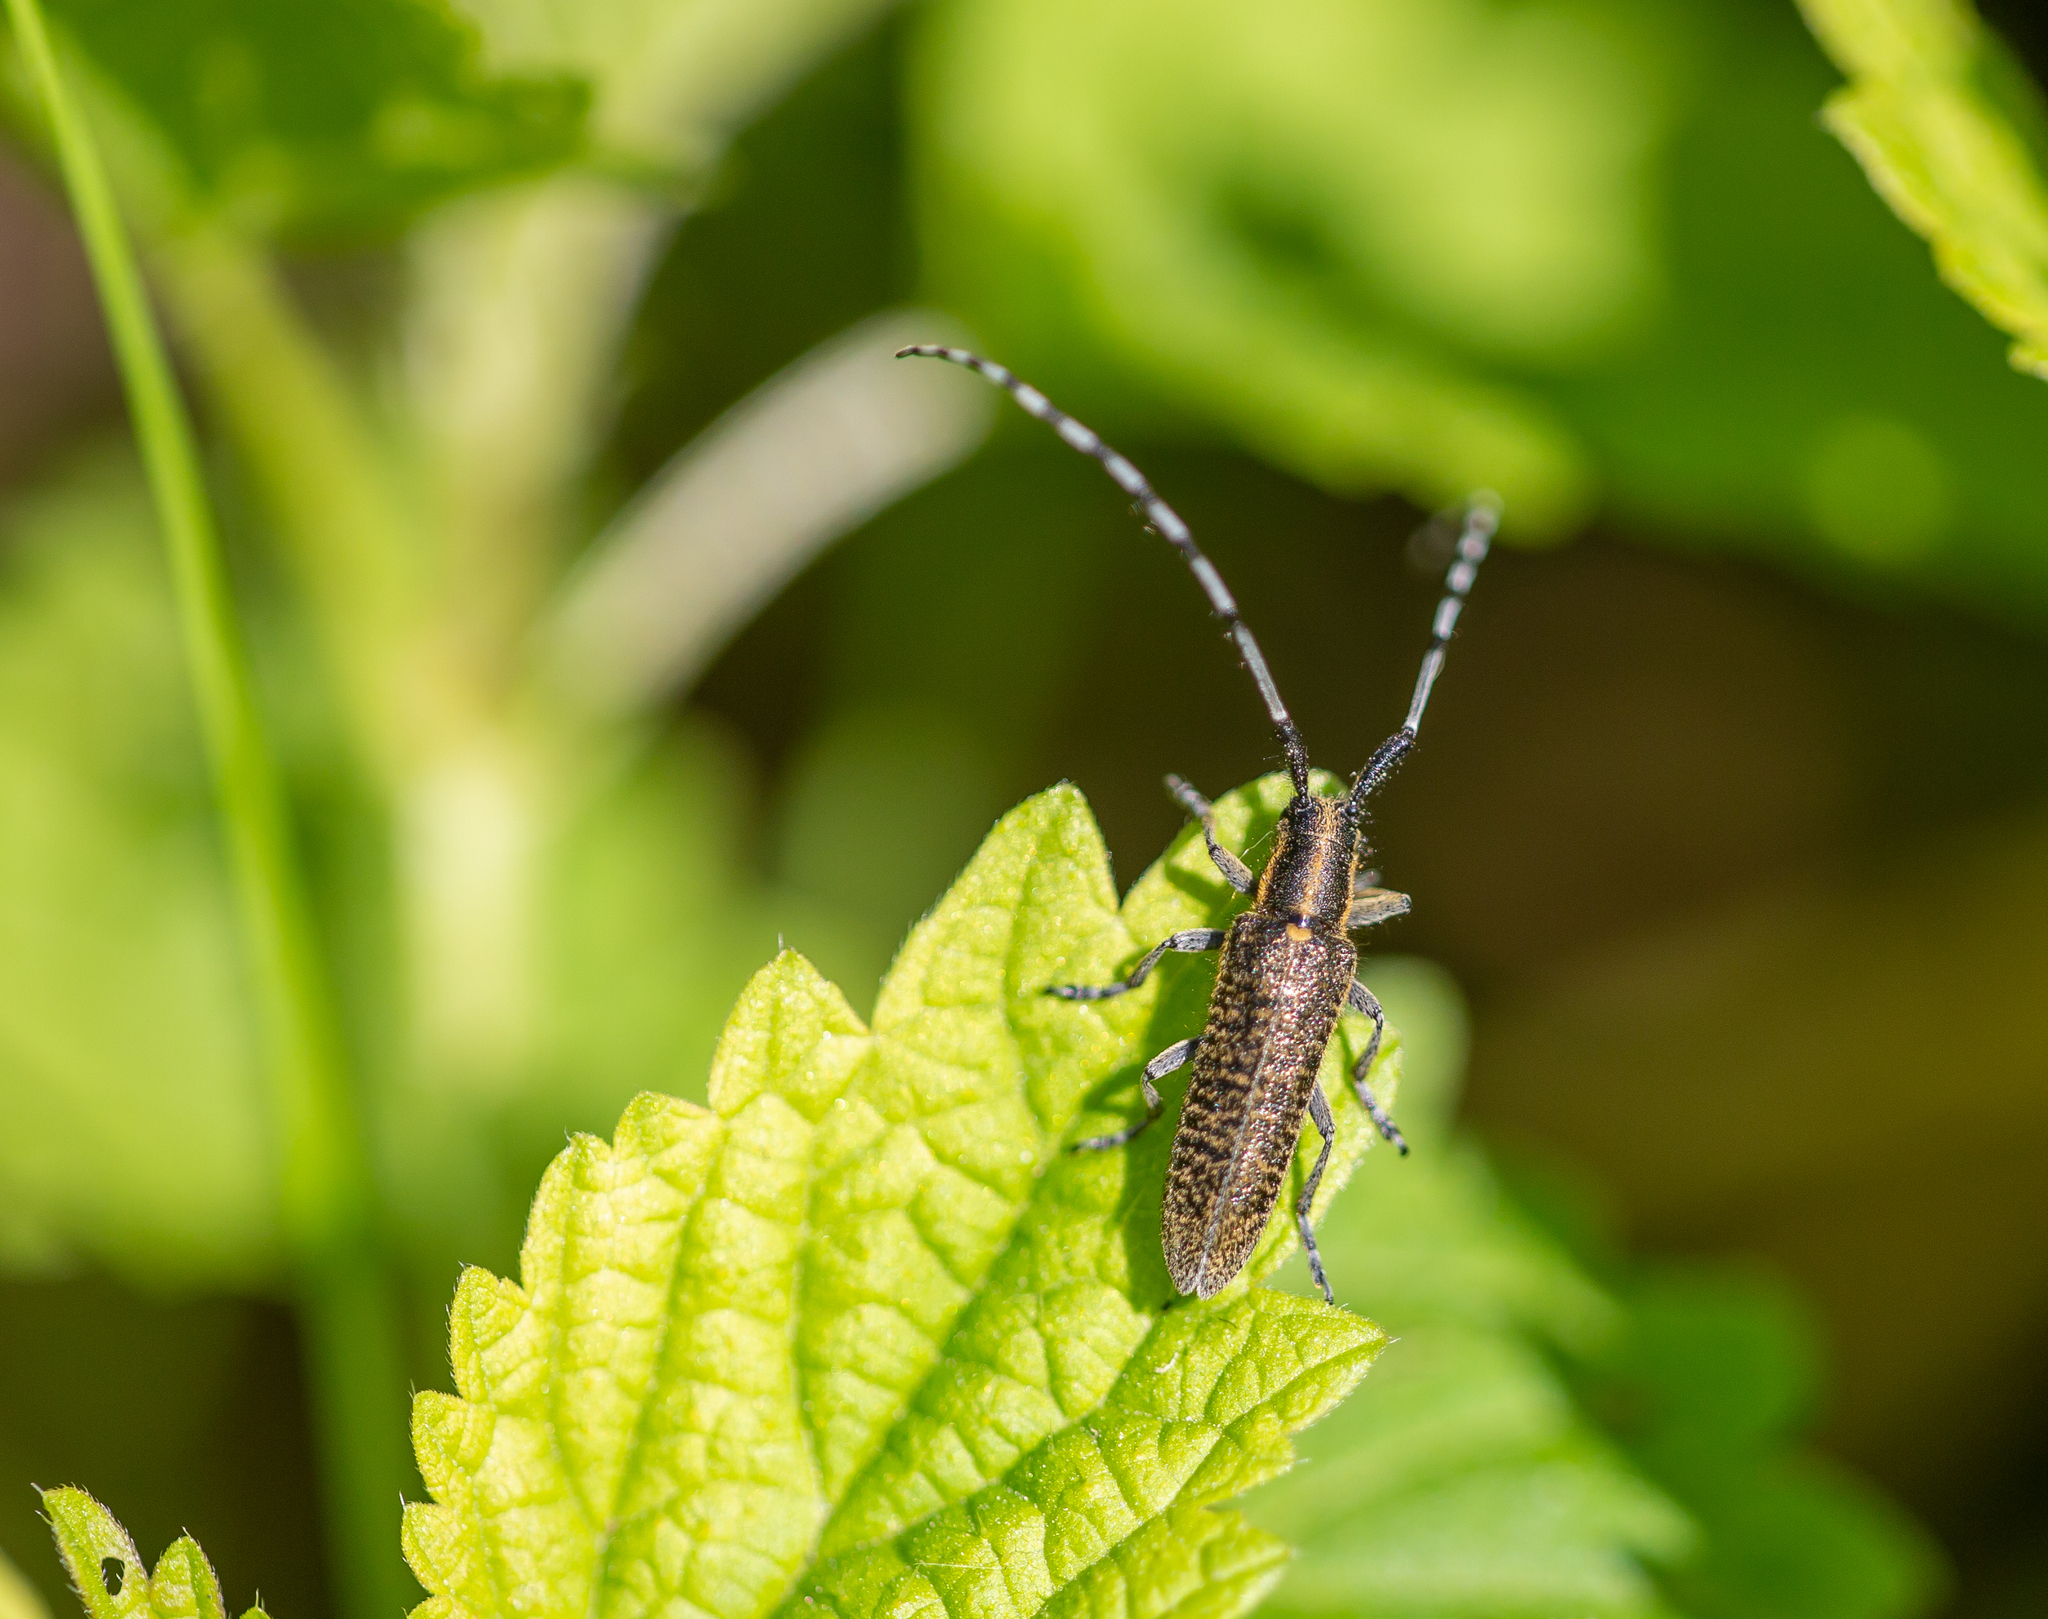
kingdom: Animalia
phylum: Arthropoda
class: Insecta
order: Coleoptera
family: Cerambycidae
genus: Agapanthia
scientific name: Agapanthia villosoviridescens
